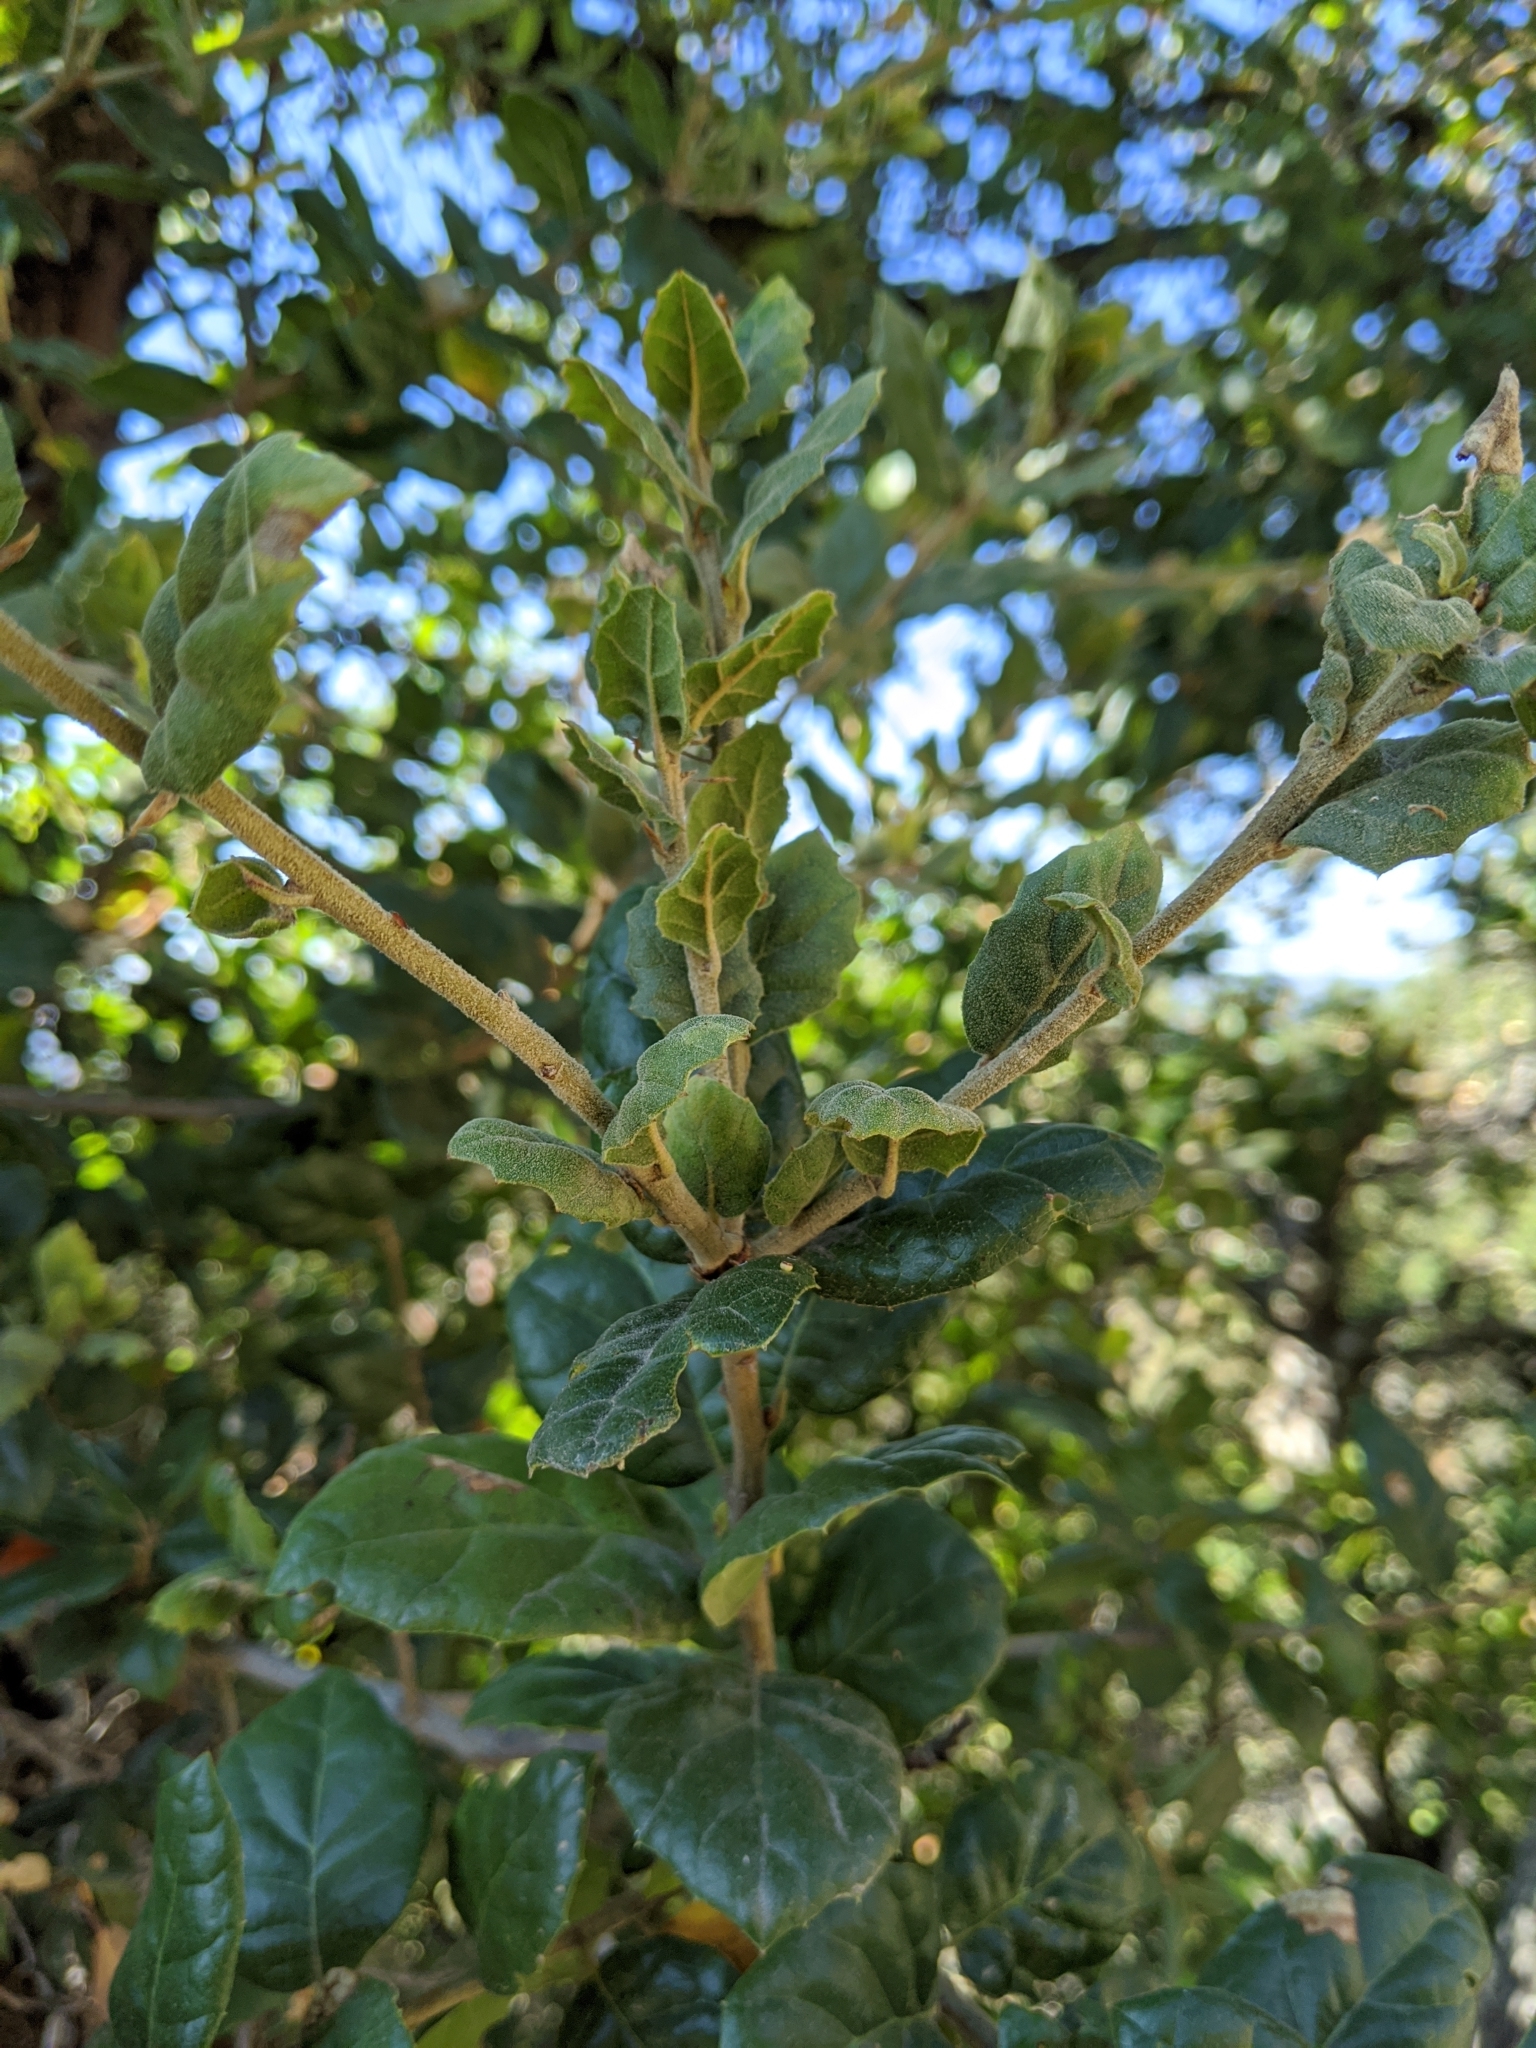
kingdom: Plantae
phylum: Tracheophyta
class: Magnoliopsida
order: Fagales
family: Fagaceae
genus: Quercus
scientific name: Quercus agrifolia
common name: California live oak
